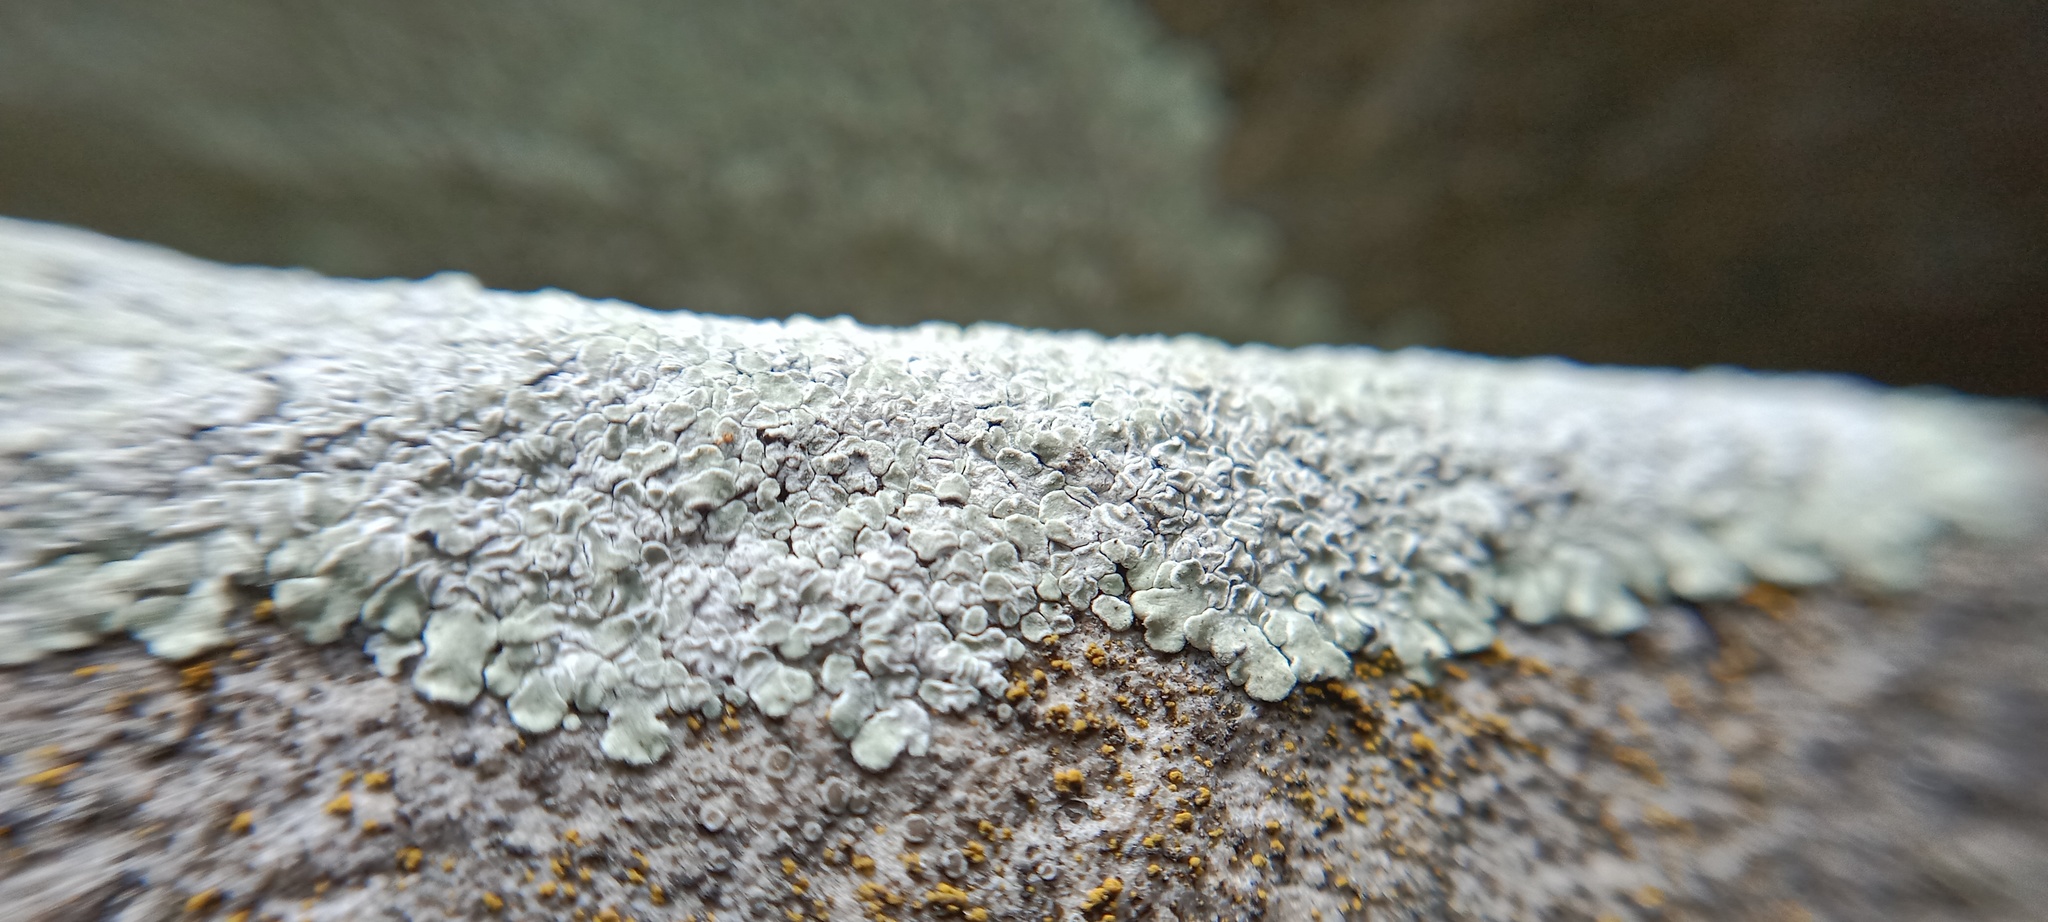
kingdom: Fungi
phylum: Ascomycota
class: Lecanoromycetes
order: Lecanorales
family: Lecanoraceae
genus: Protoparmeliopsis
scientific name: Protoparmeliopsis muralis
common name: Stonewall rim lichen
